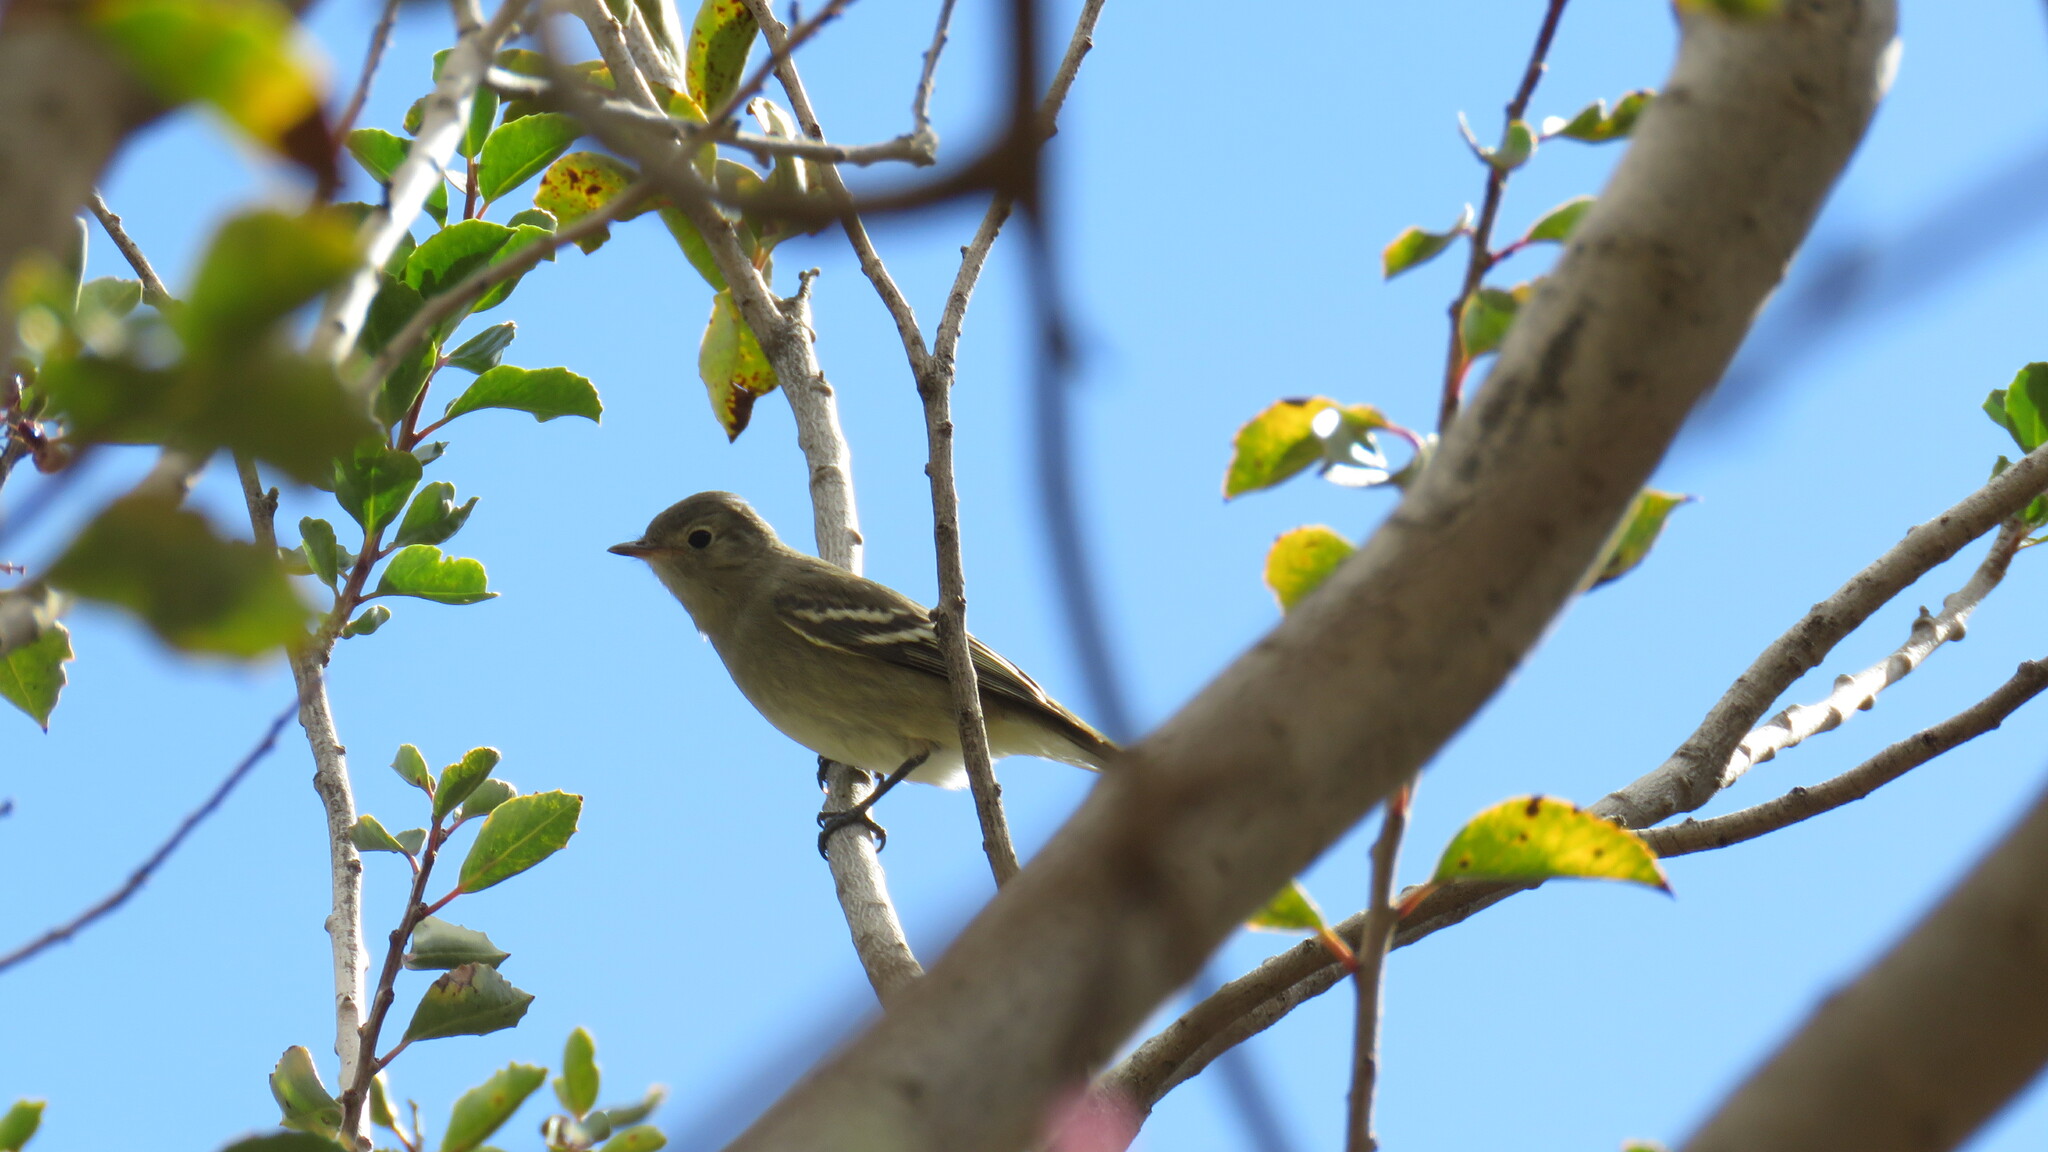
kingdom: Animalia
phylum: Chordata
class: Aves
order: Passeriformes
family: Tyrannidae
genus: Elaenia
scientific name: Elaenia albiceps
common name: White-crested elaenia
